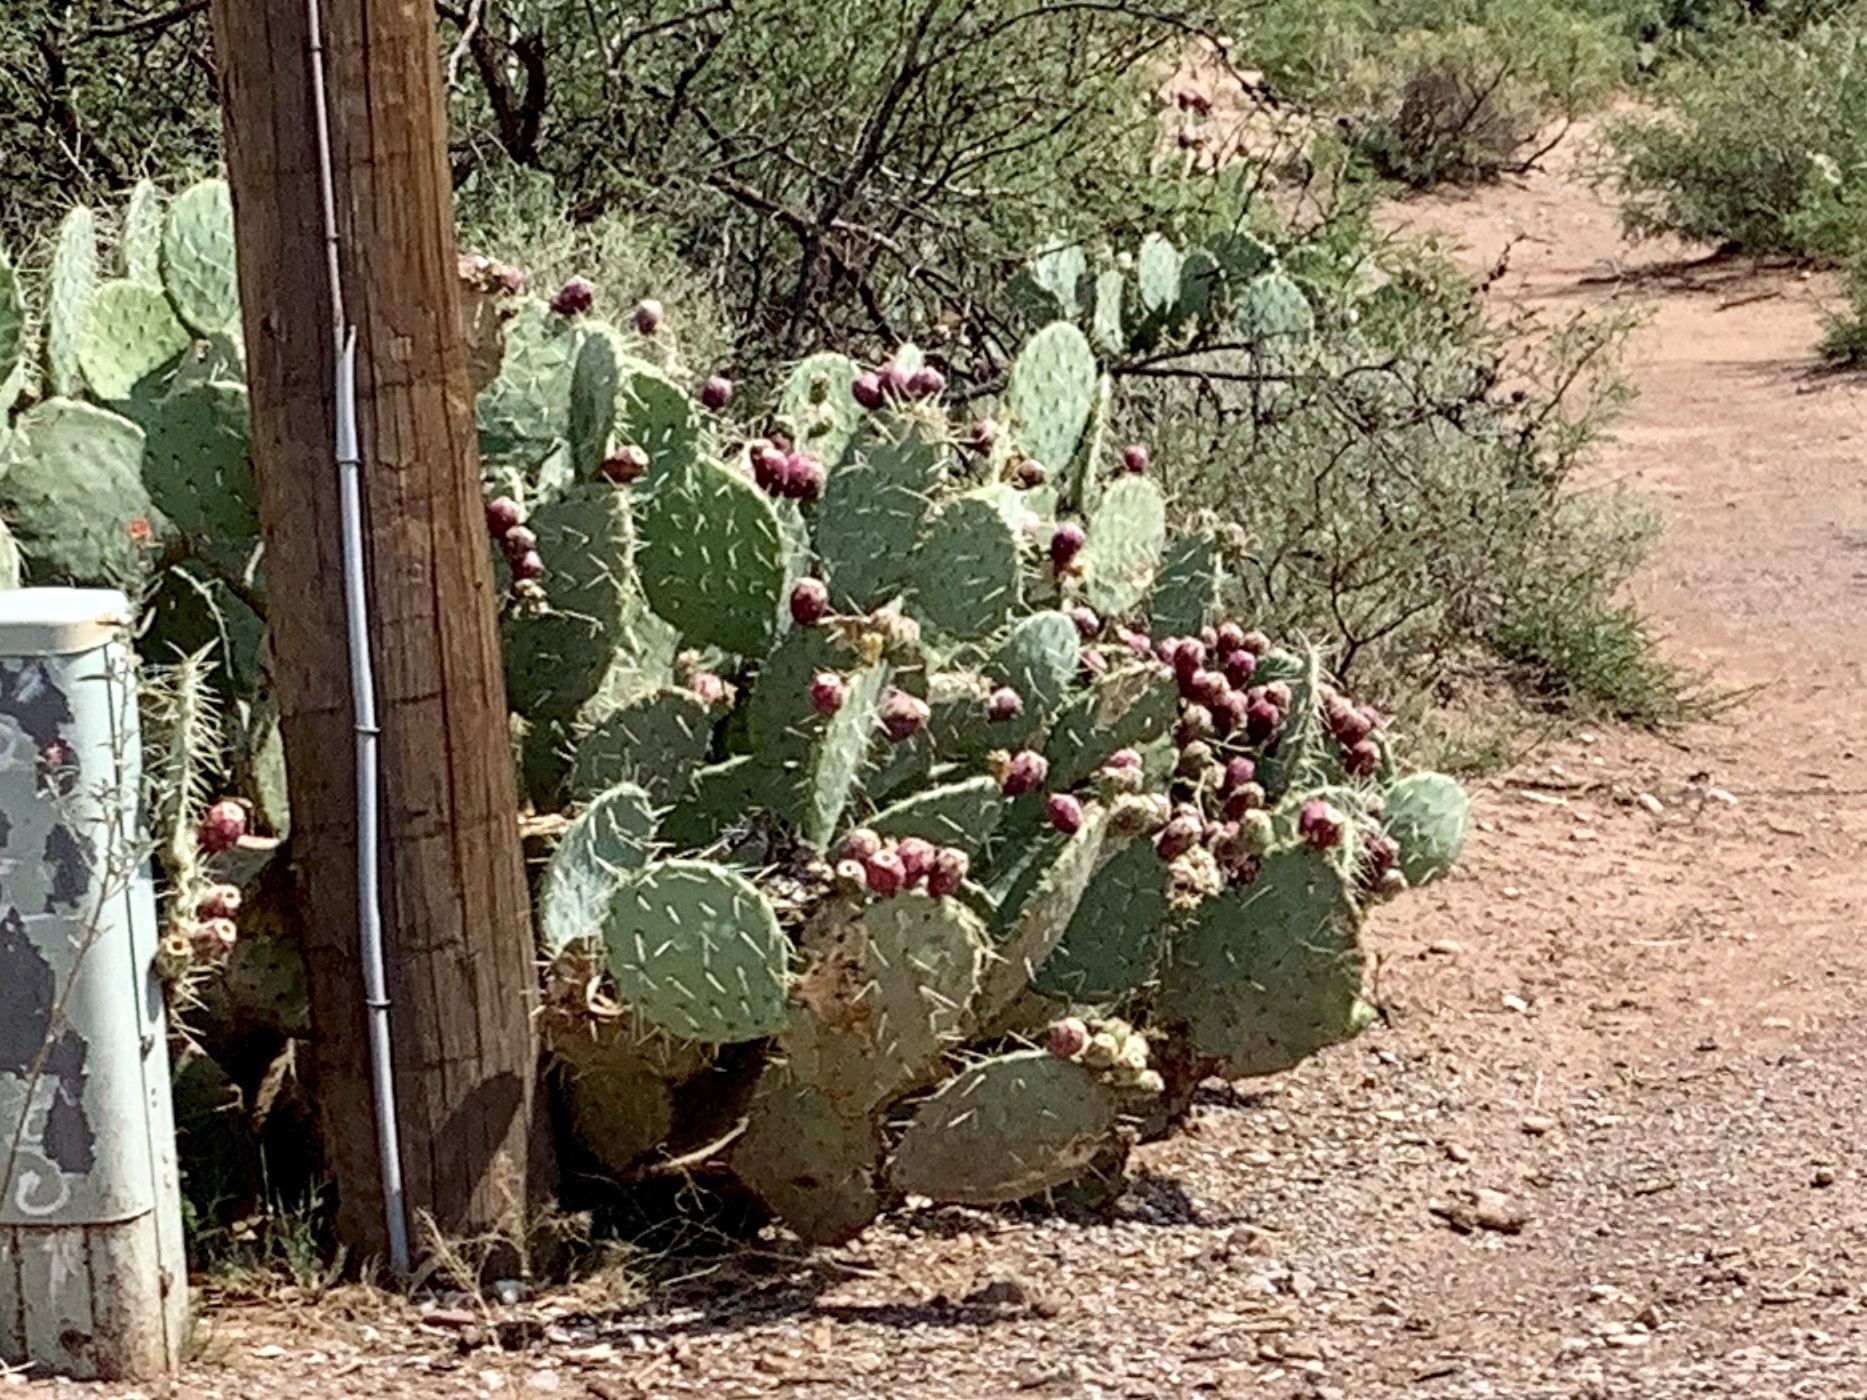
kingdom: Plantae
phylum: Tracheophyta
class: Magnoliopsida
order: Caryophyllales
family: Cactaceae
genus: Opuntia
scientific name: Opuntia orbiculata
